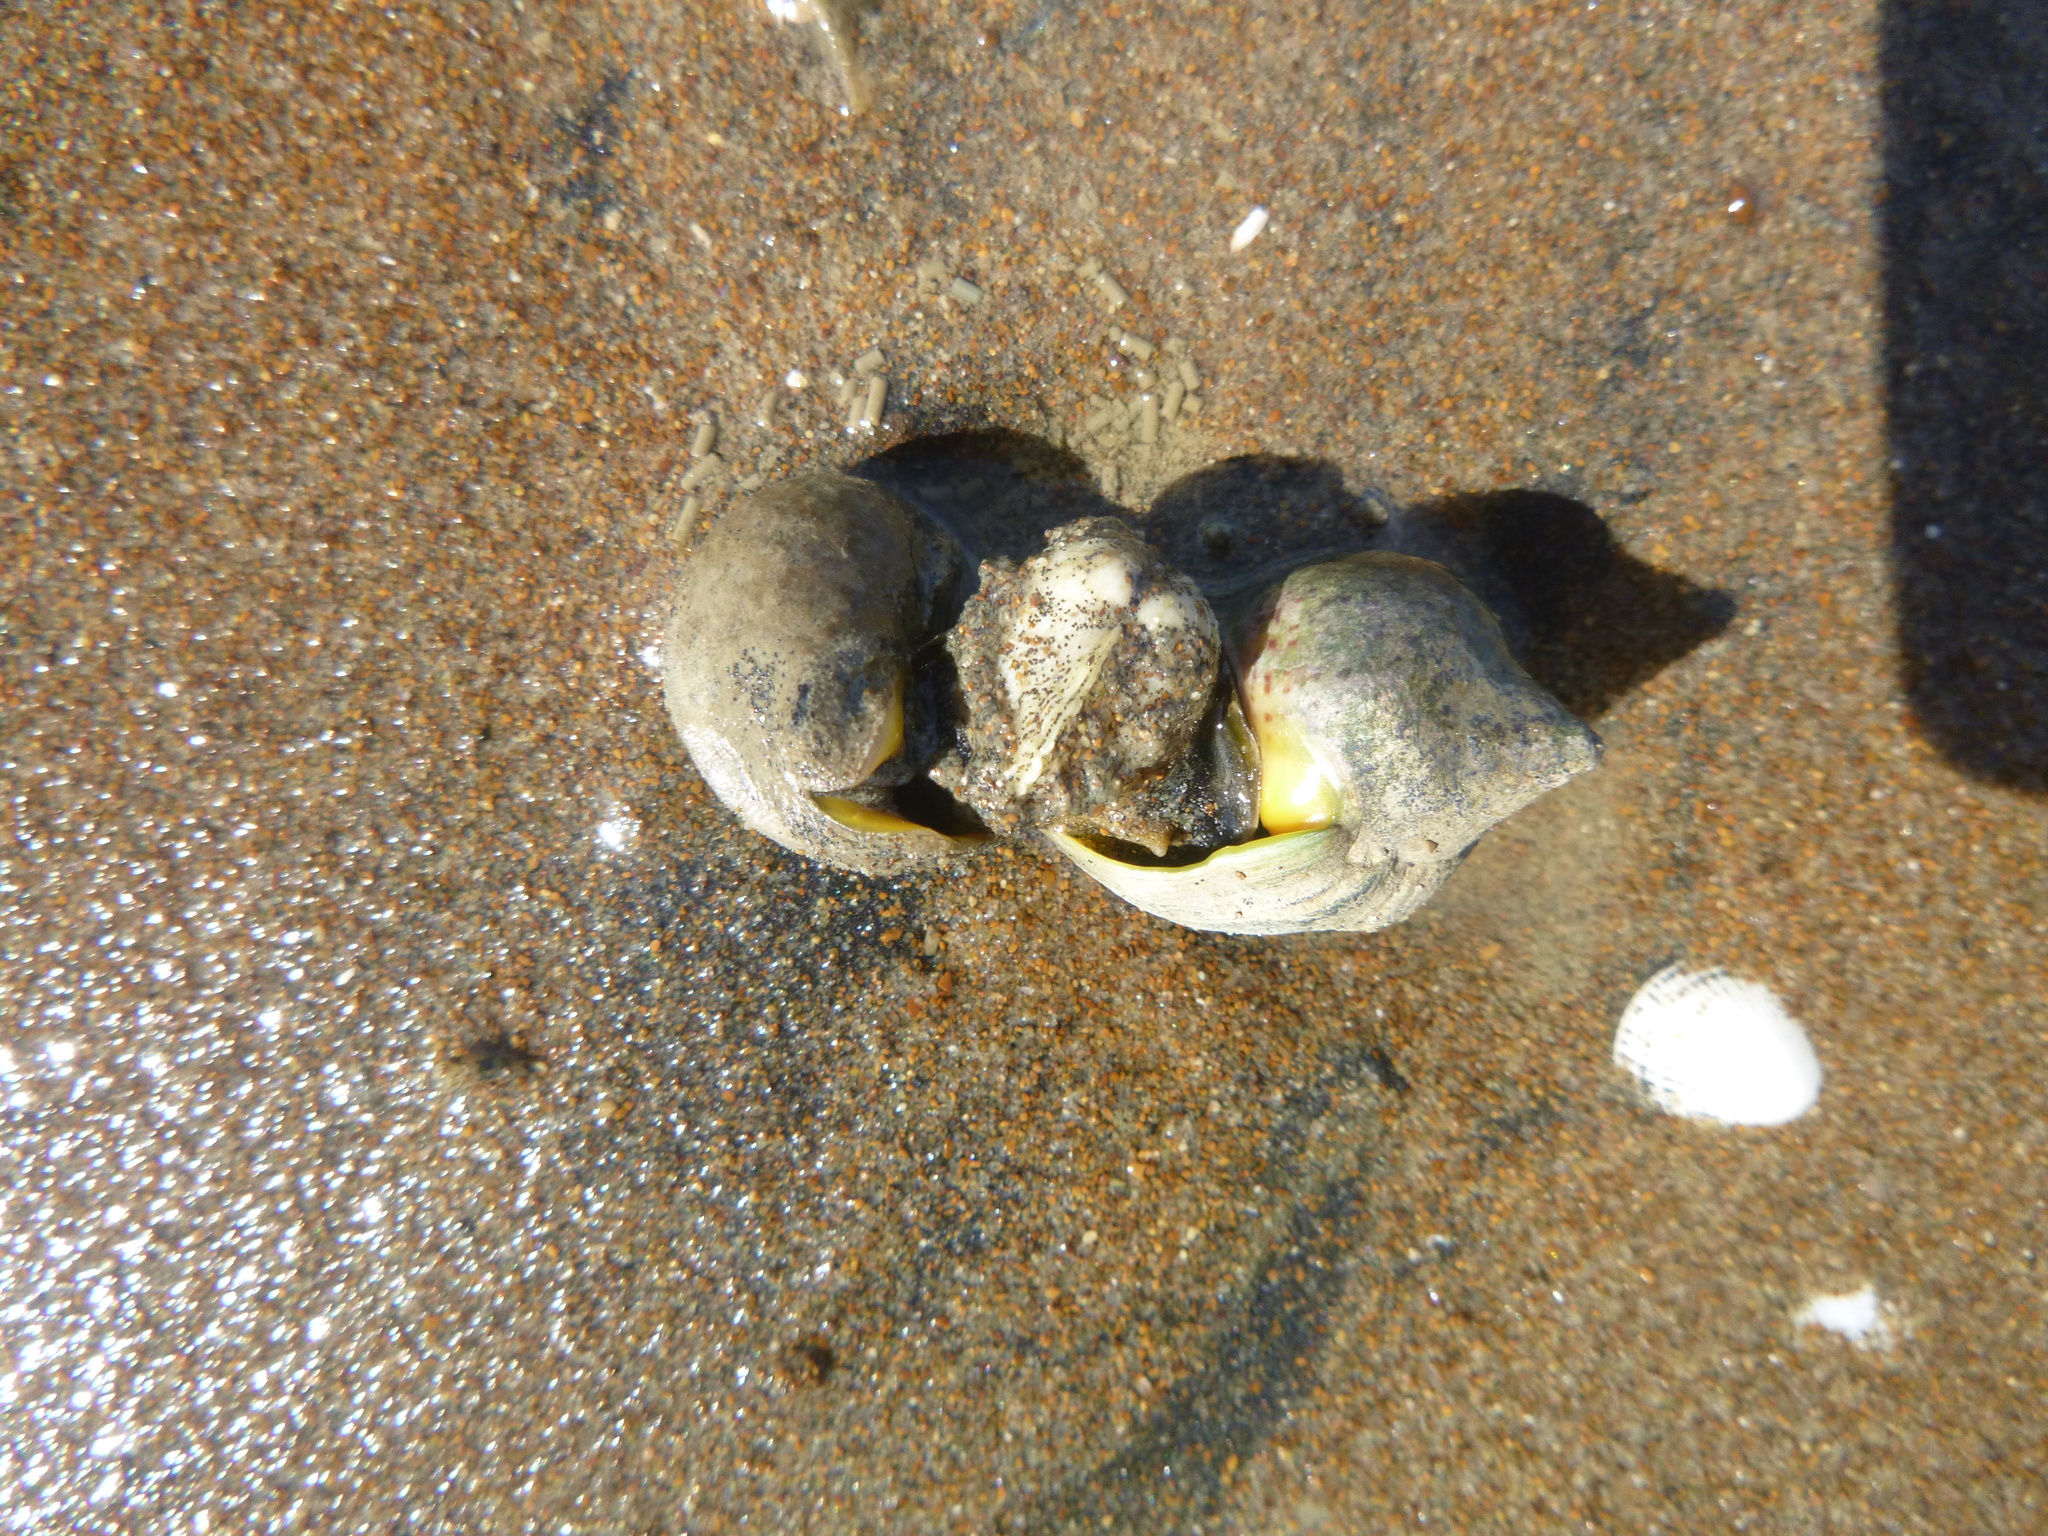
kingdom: Animalia
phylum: Mollusca
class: Bivalvia
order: Venerida
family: Veneridae
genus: Austrovenus
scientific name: Austrovenus stutchburyi
